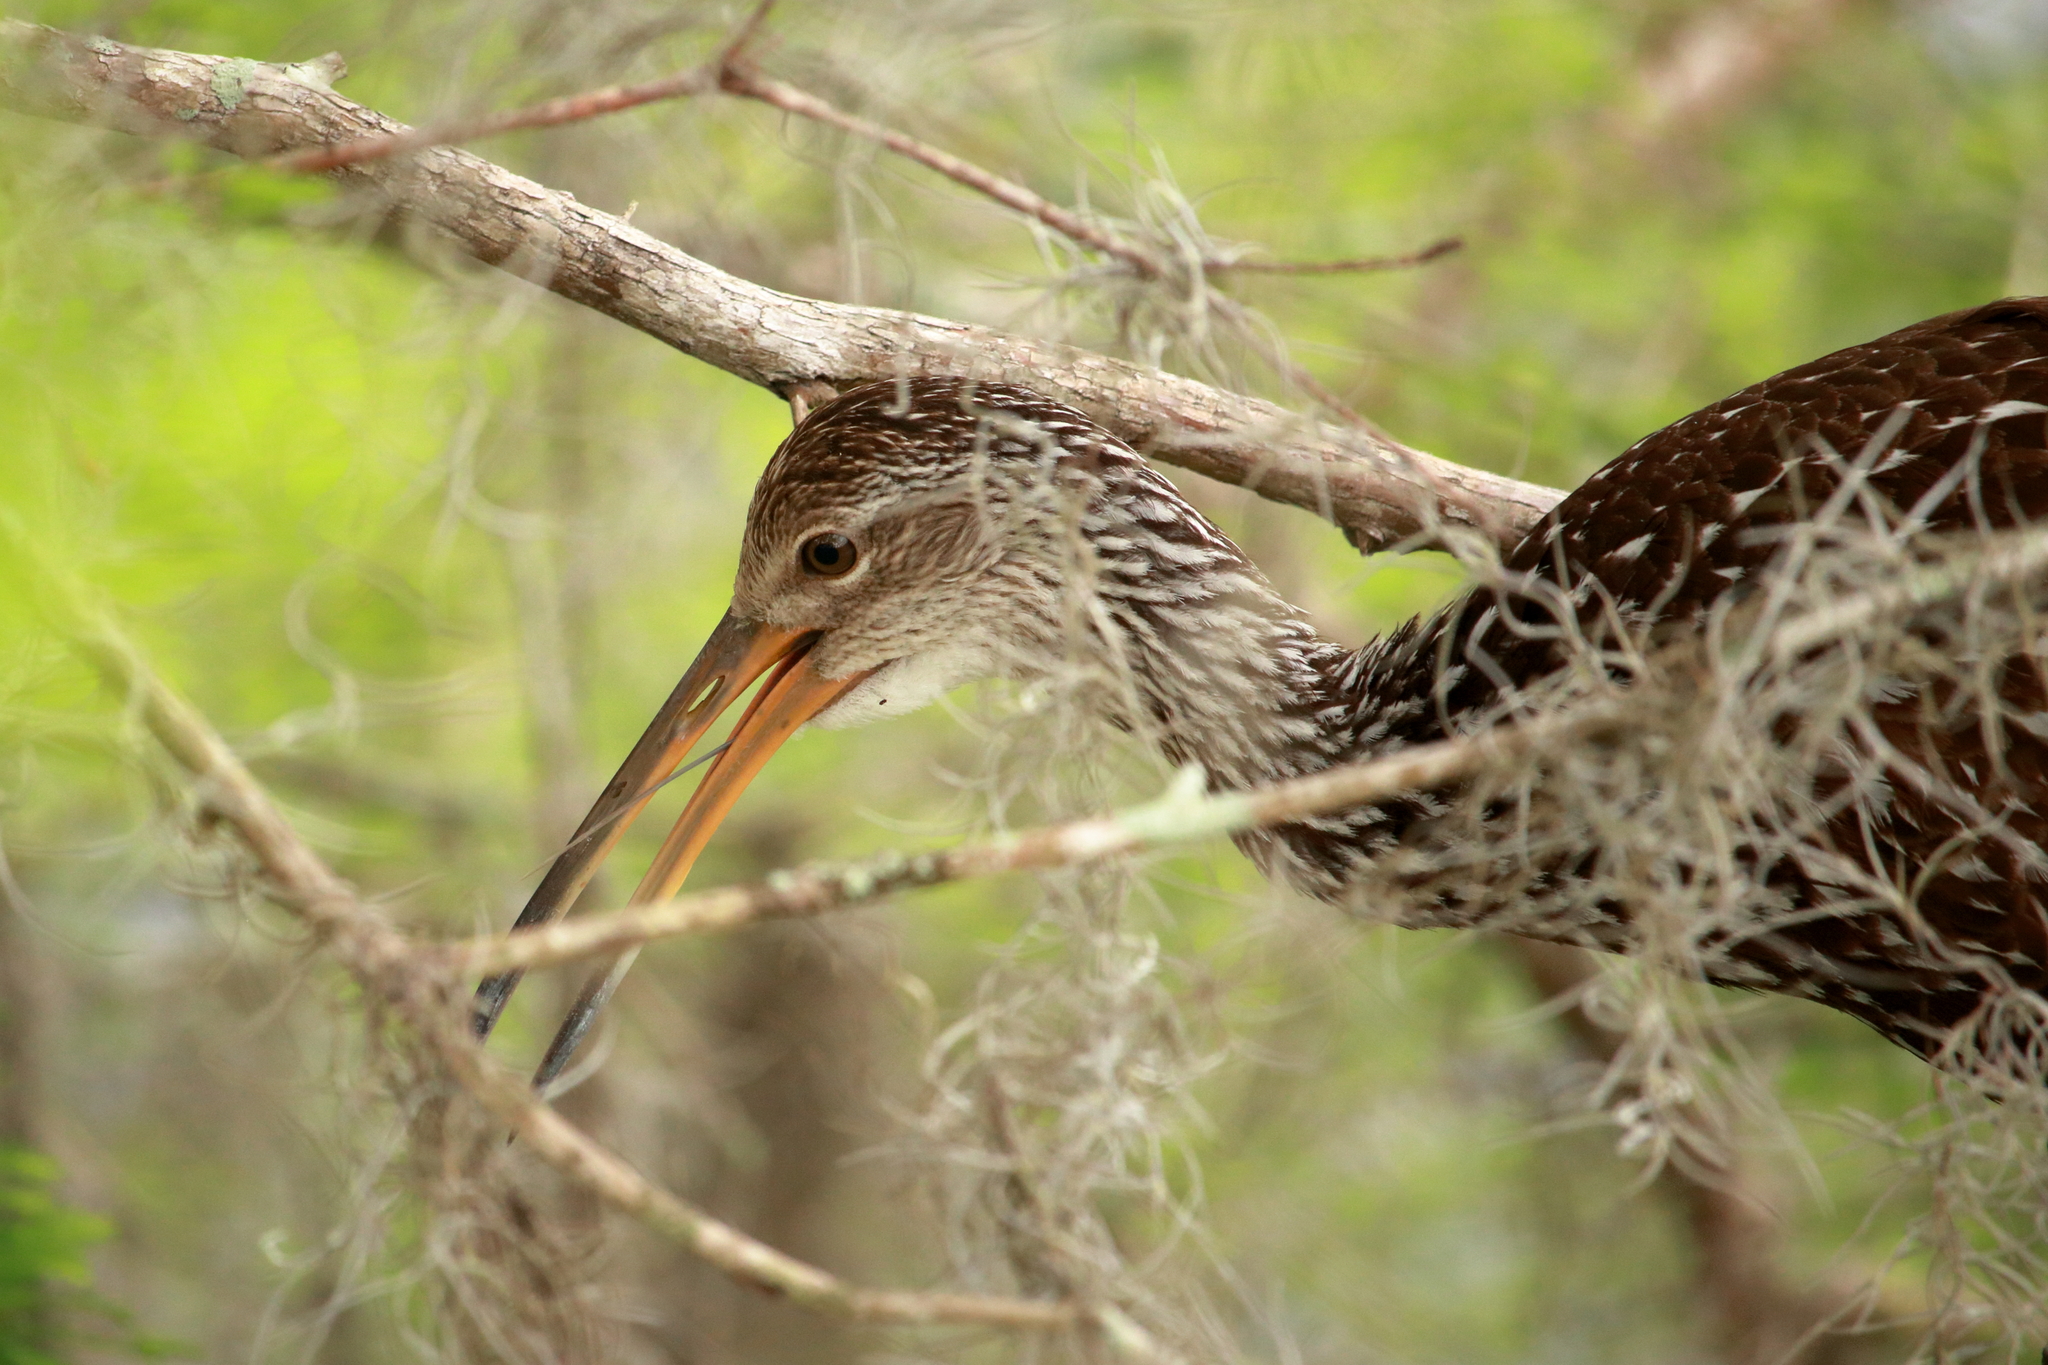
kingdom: Animalia
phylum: Chordata
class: Aves
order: Gruiformes
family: Aramidae
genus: Aramus
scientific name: Aramus guarauna
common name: Limpkin
